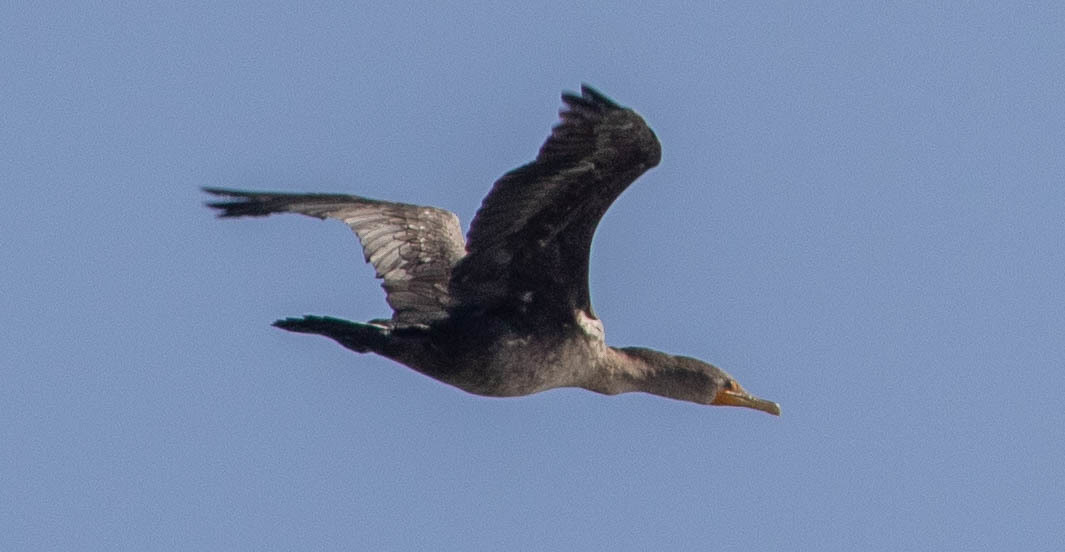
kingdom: Animalia
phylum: Chordata
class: Aves
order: Suliformes
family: Phalacrocoracidae
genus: Phalacrocorax
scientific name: Phalacrocorax auritus
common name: Double-crested cormorant
